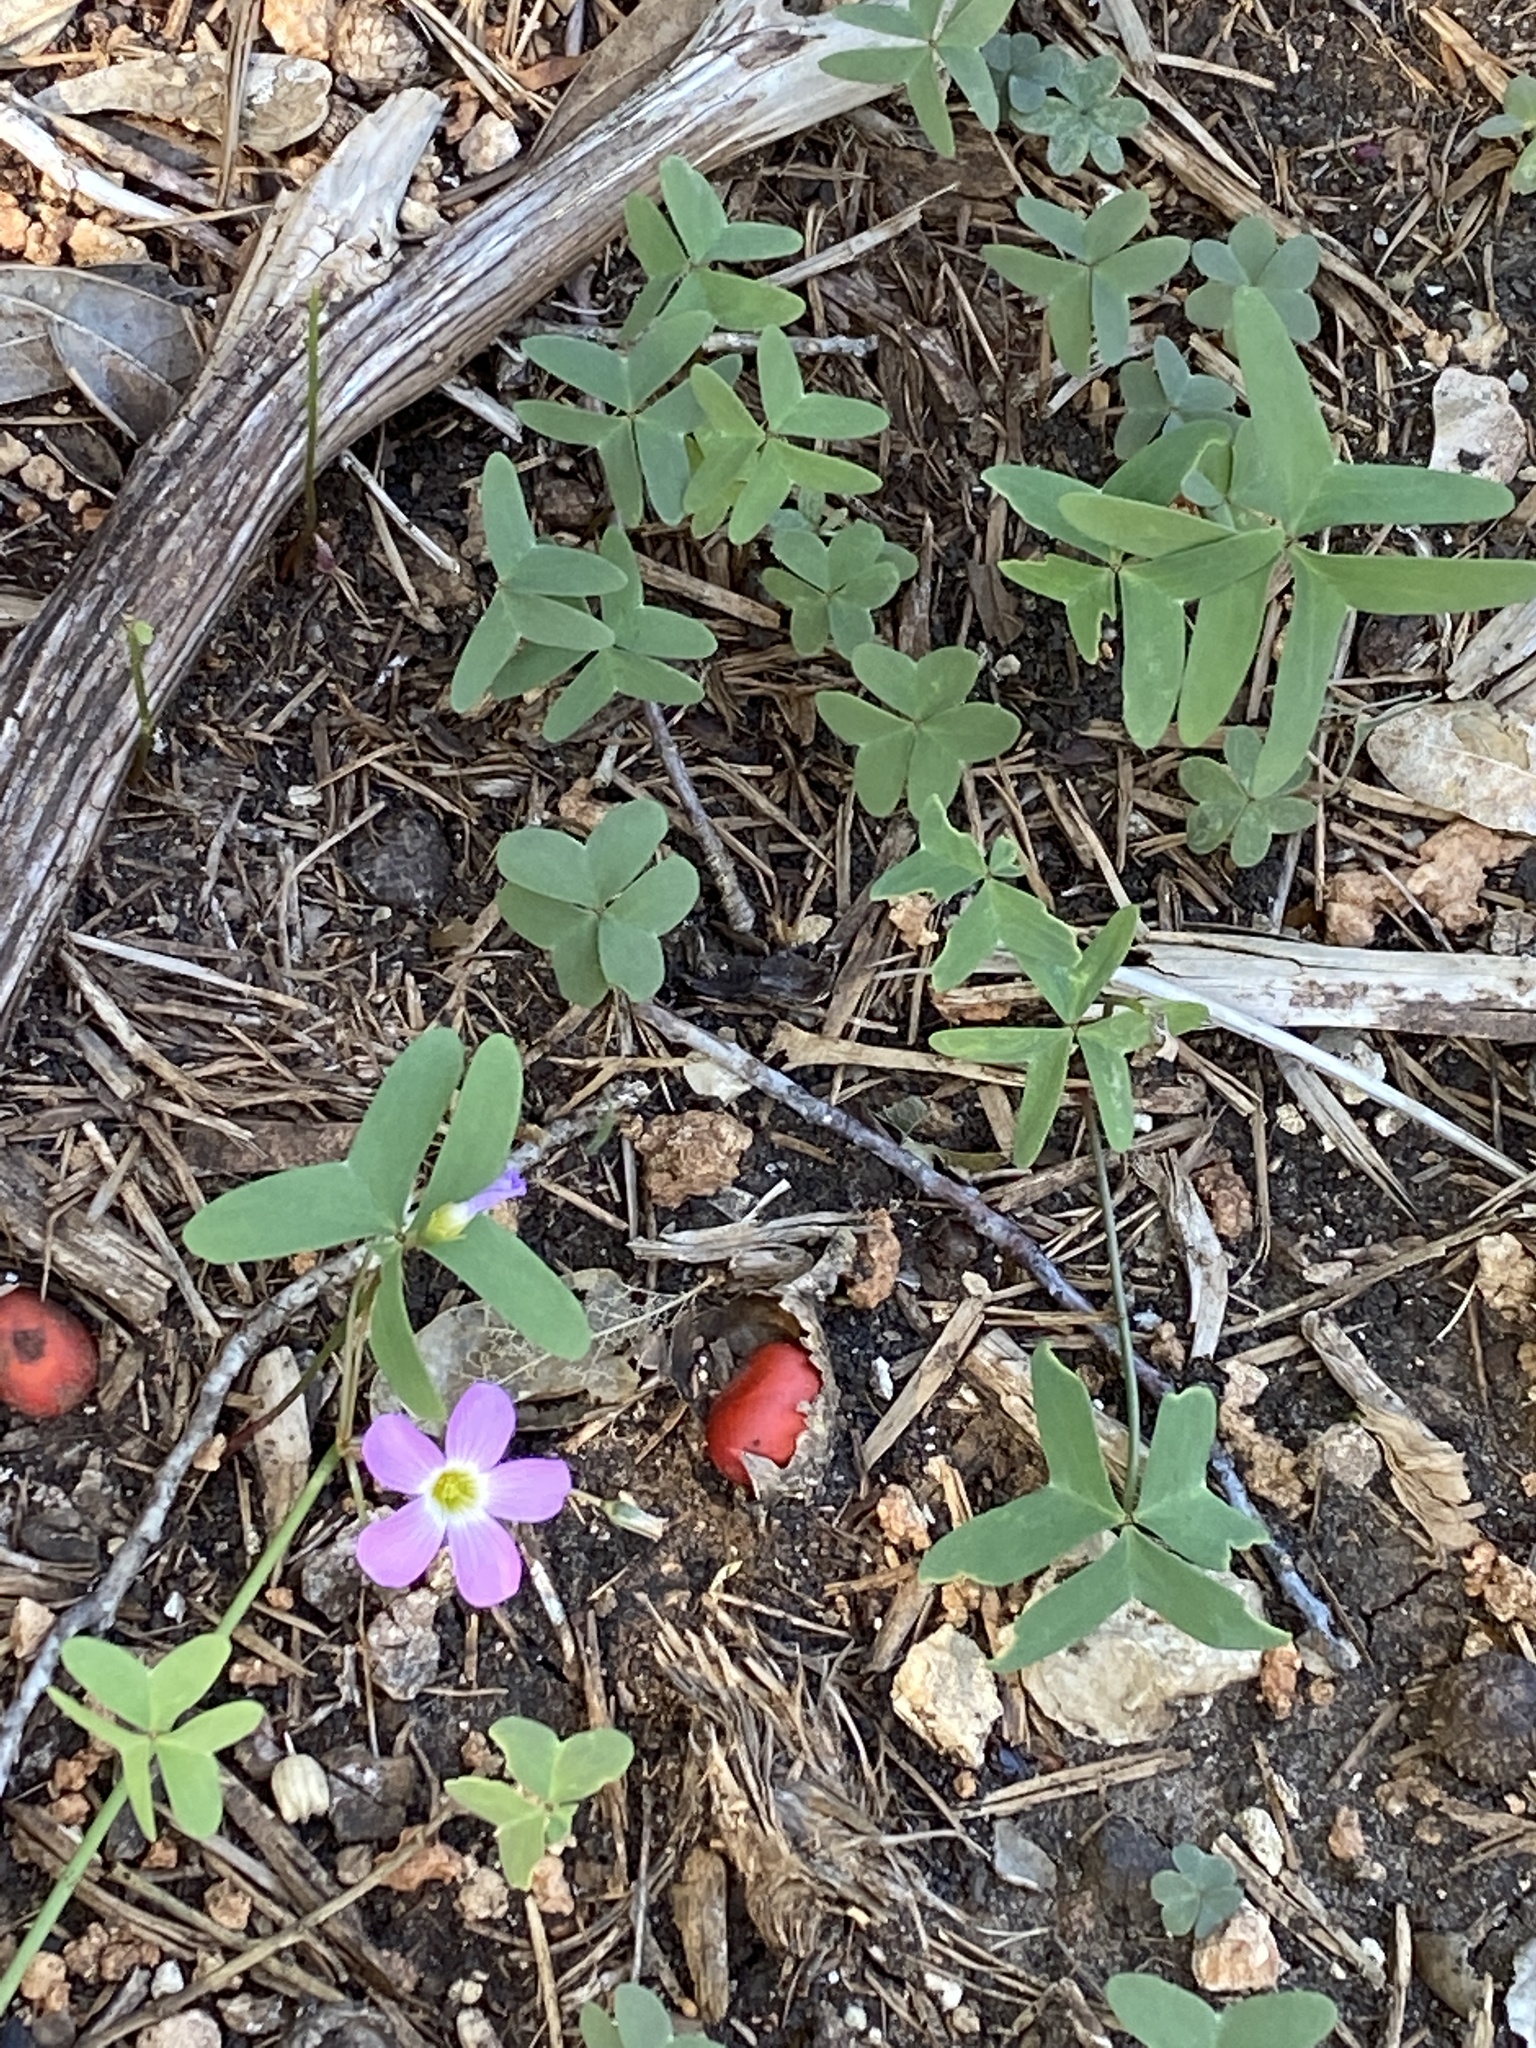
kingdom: Plantae
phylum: Tracheophyta
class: Magnoliopsida
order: Oxalidales
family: Oxalidaceae
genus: Oxalis
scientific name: Oxalis drummondii
